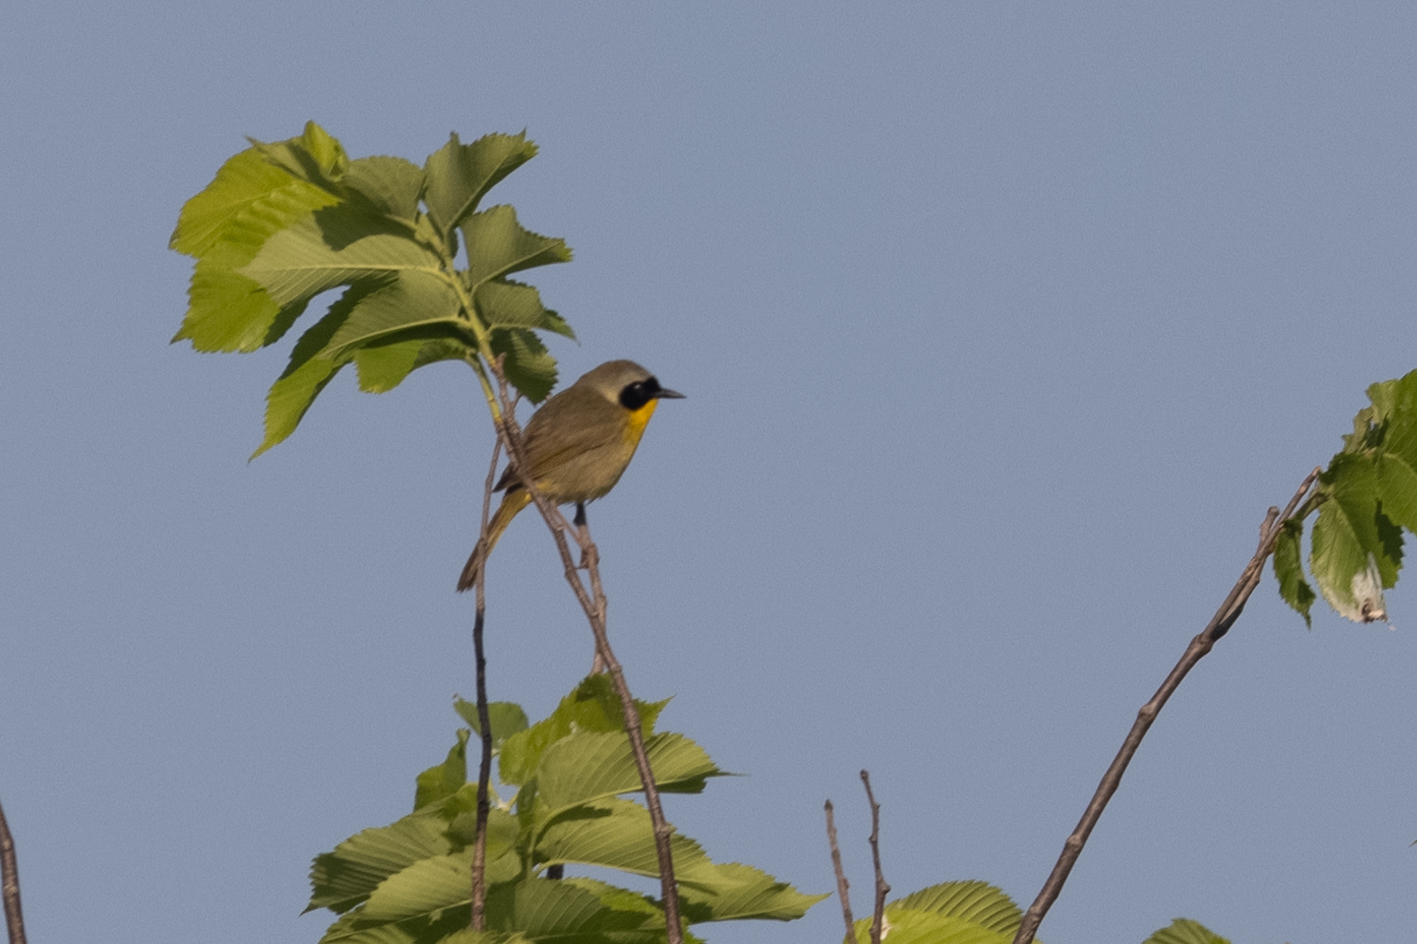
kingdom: Animalia
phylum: Chordata
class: Aves
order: Passeriformes
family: Parulidae
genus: Geothlypis
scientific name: Geothlypis trichas
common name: Common yellowthroat
